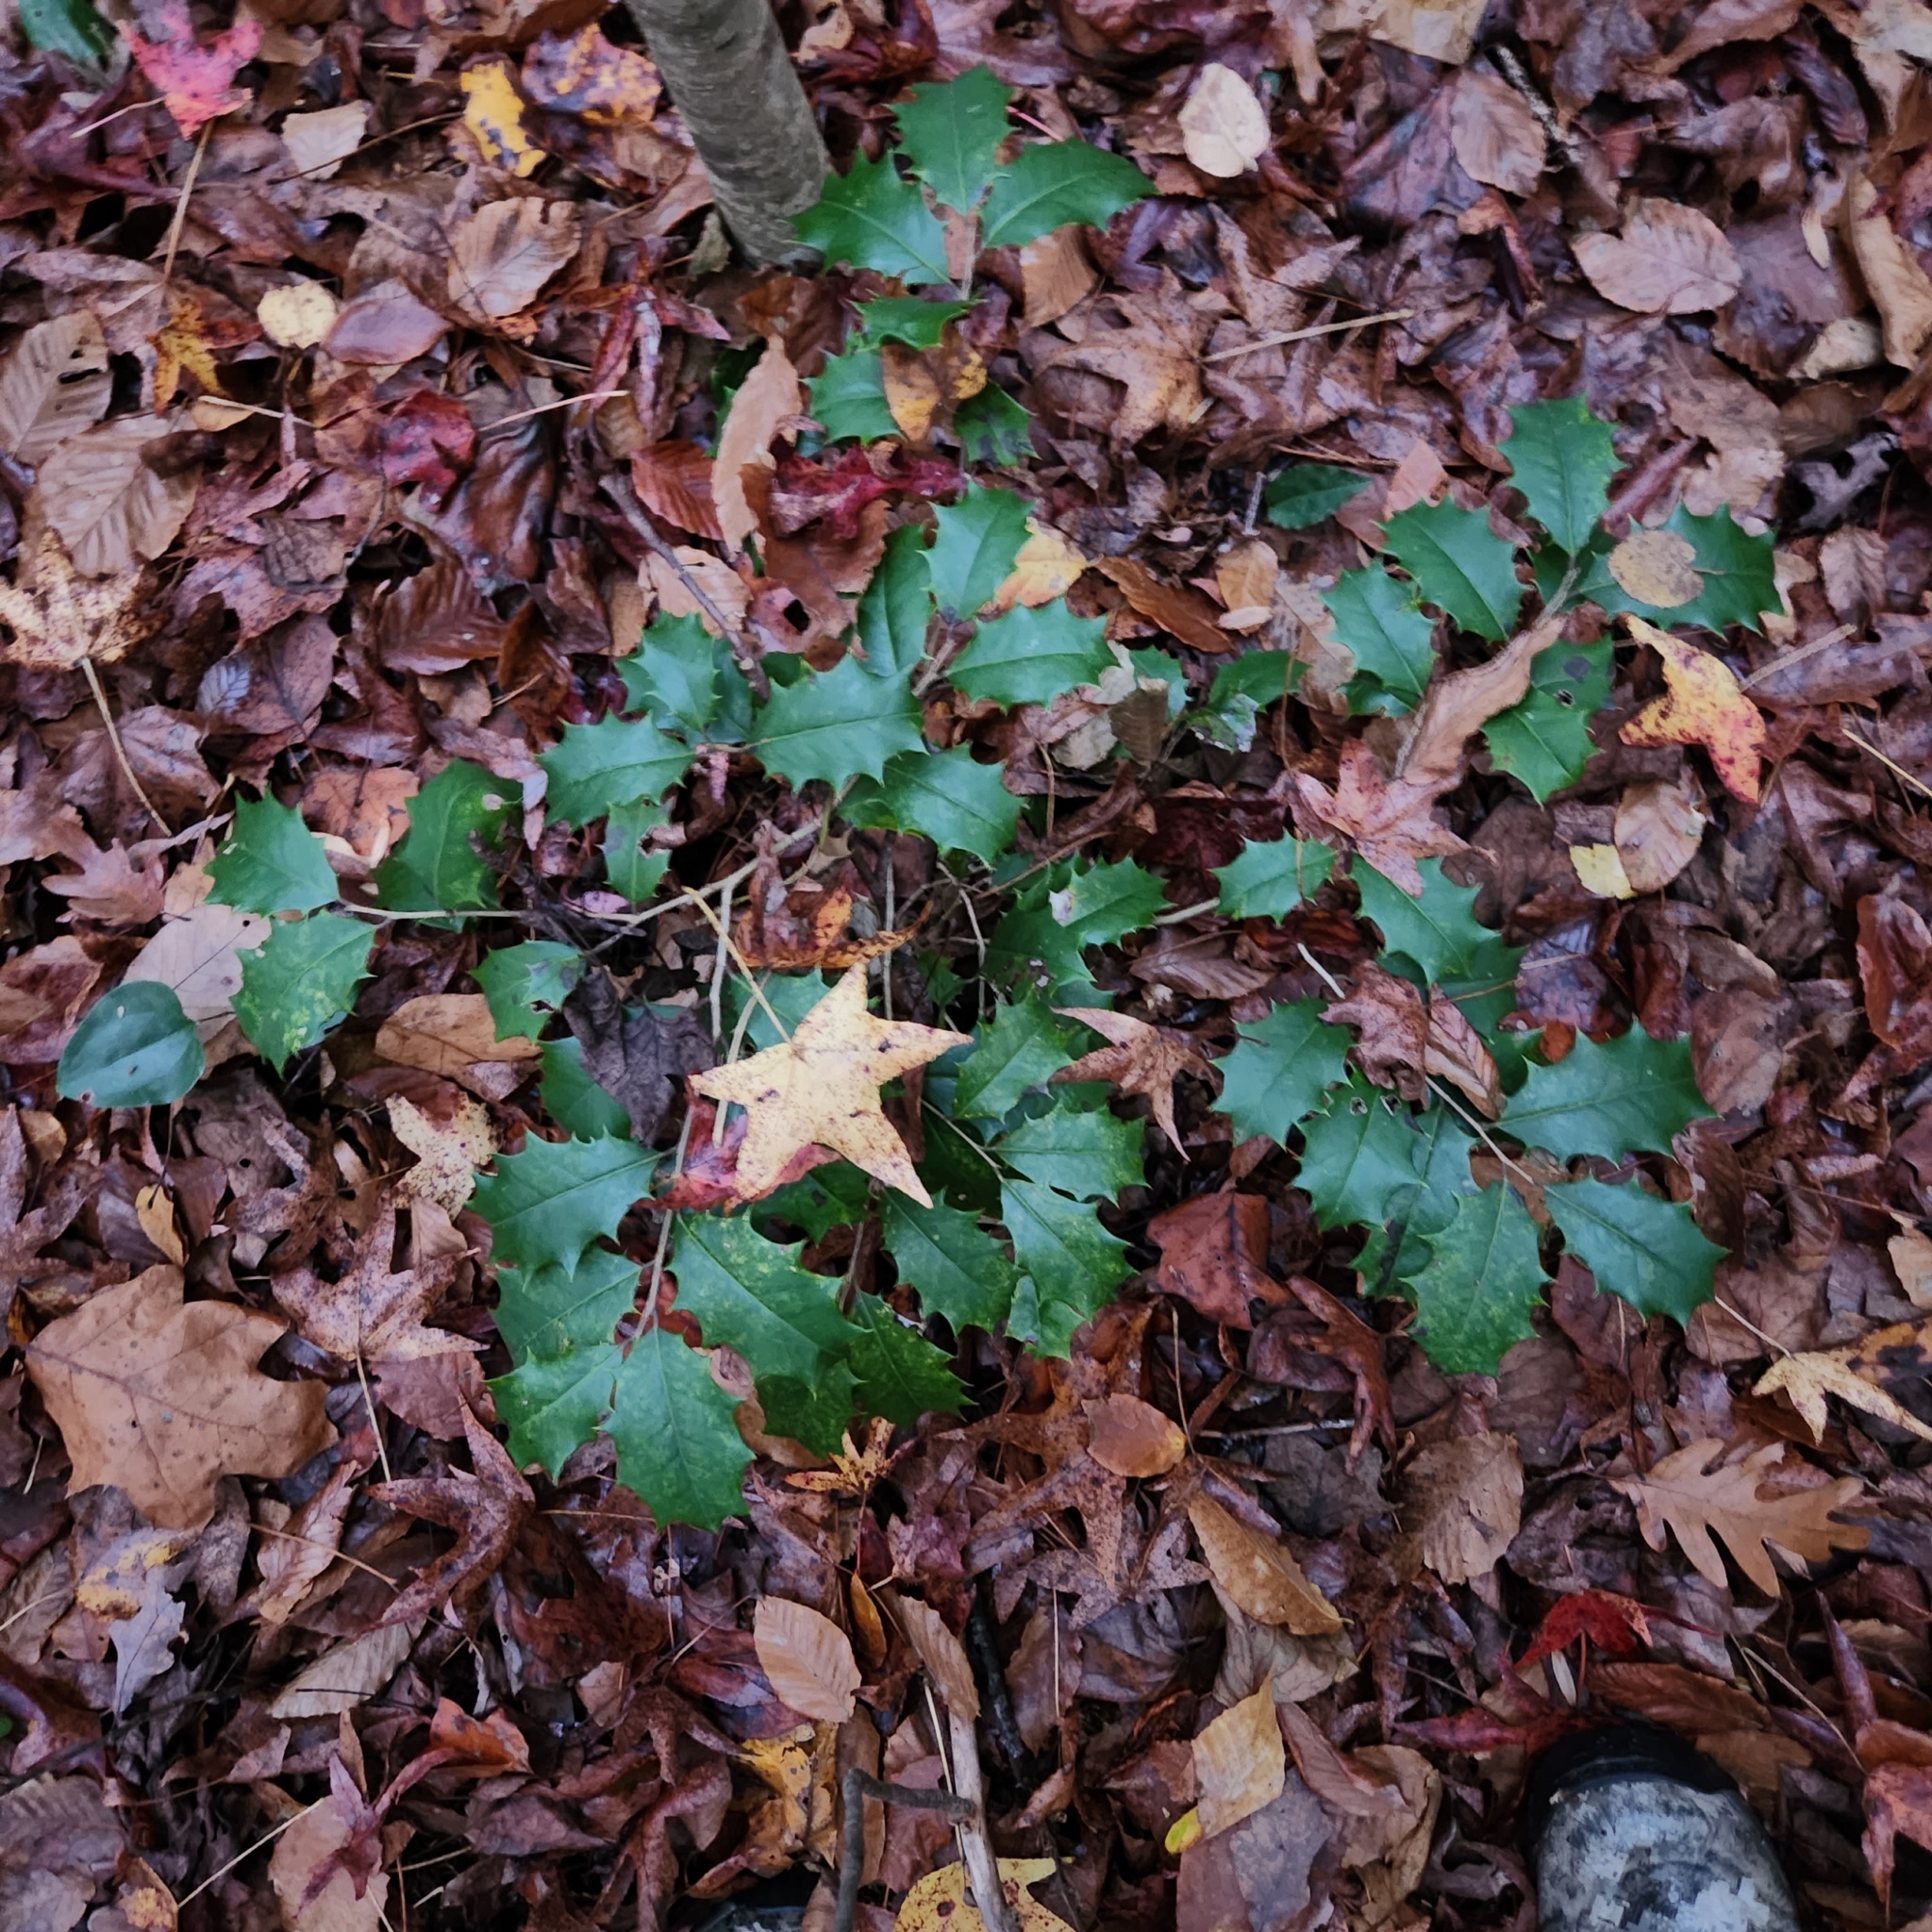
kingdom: Plantae
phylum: Tracheophyta
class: Magnoliopsida
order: Aquifoliales
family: Aquifoliaceae
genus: Ilex
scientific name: Ilex opaca
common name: American holly
